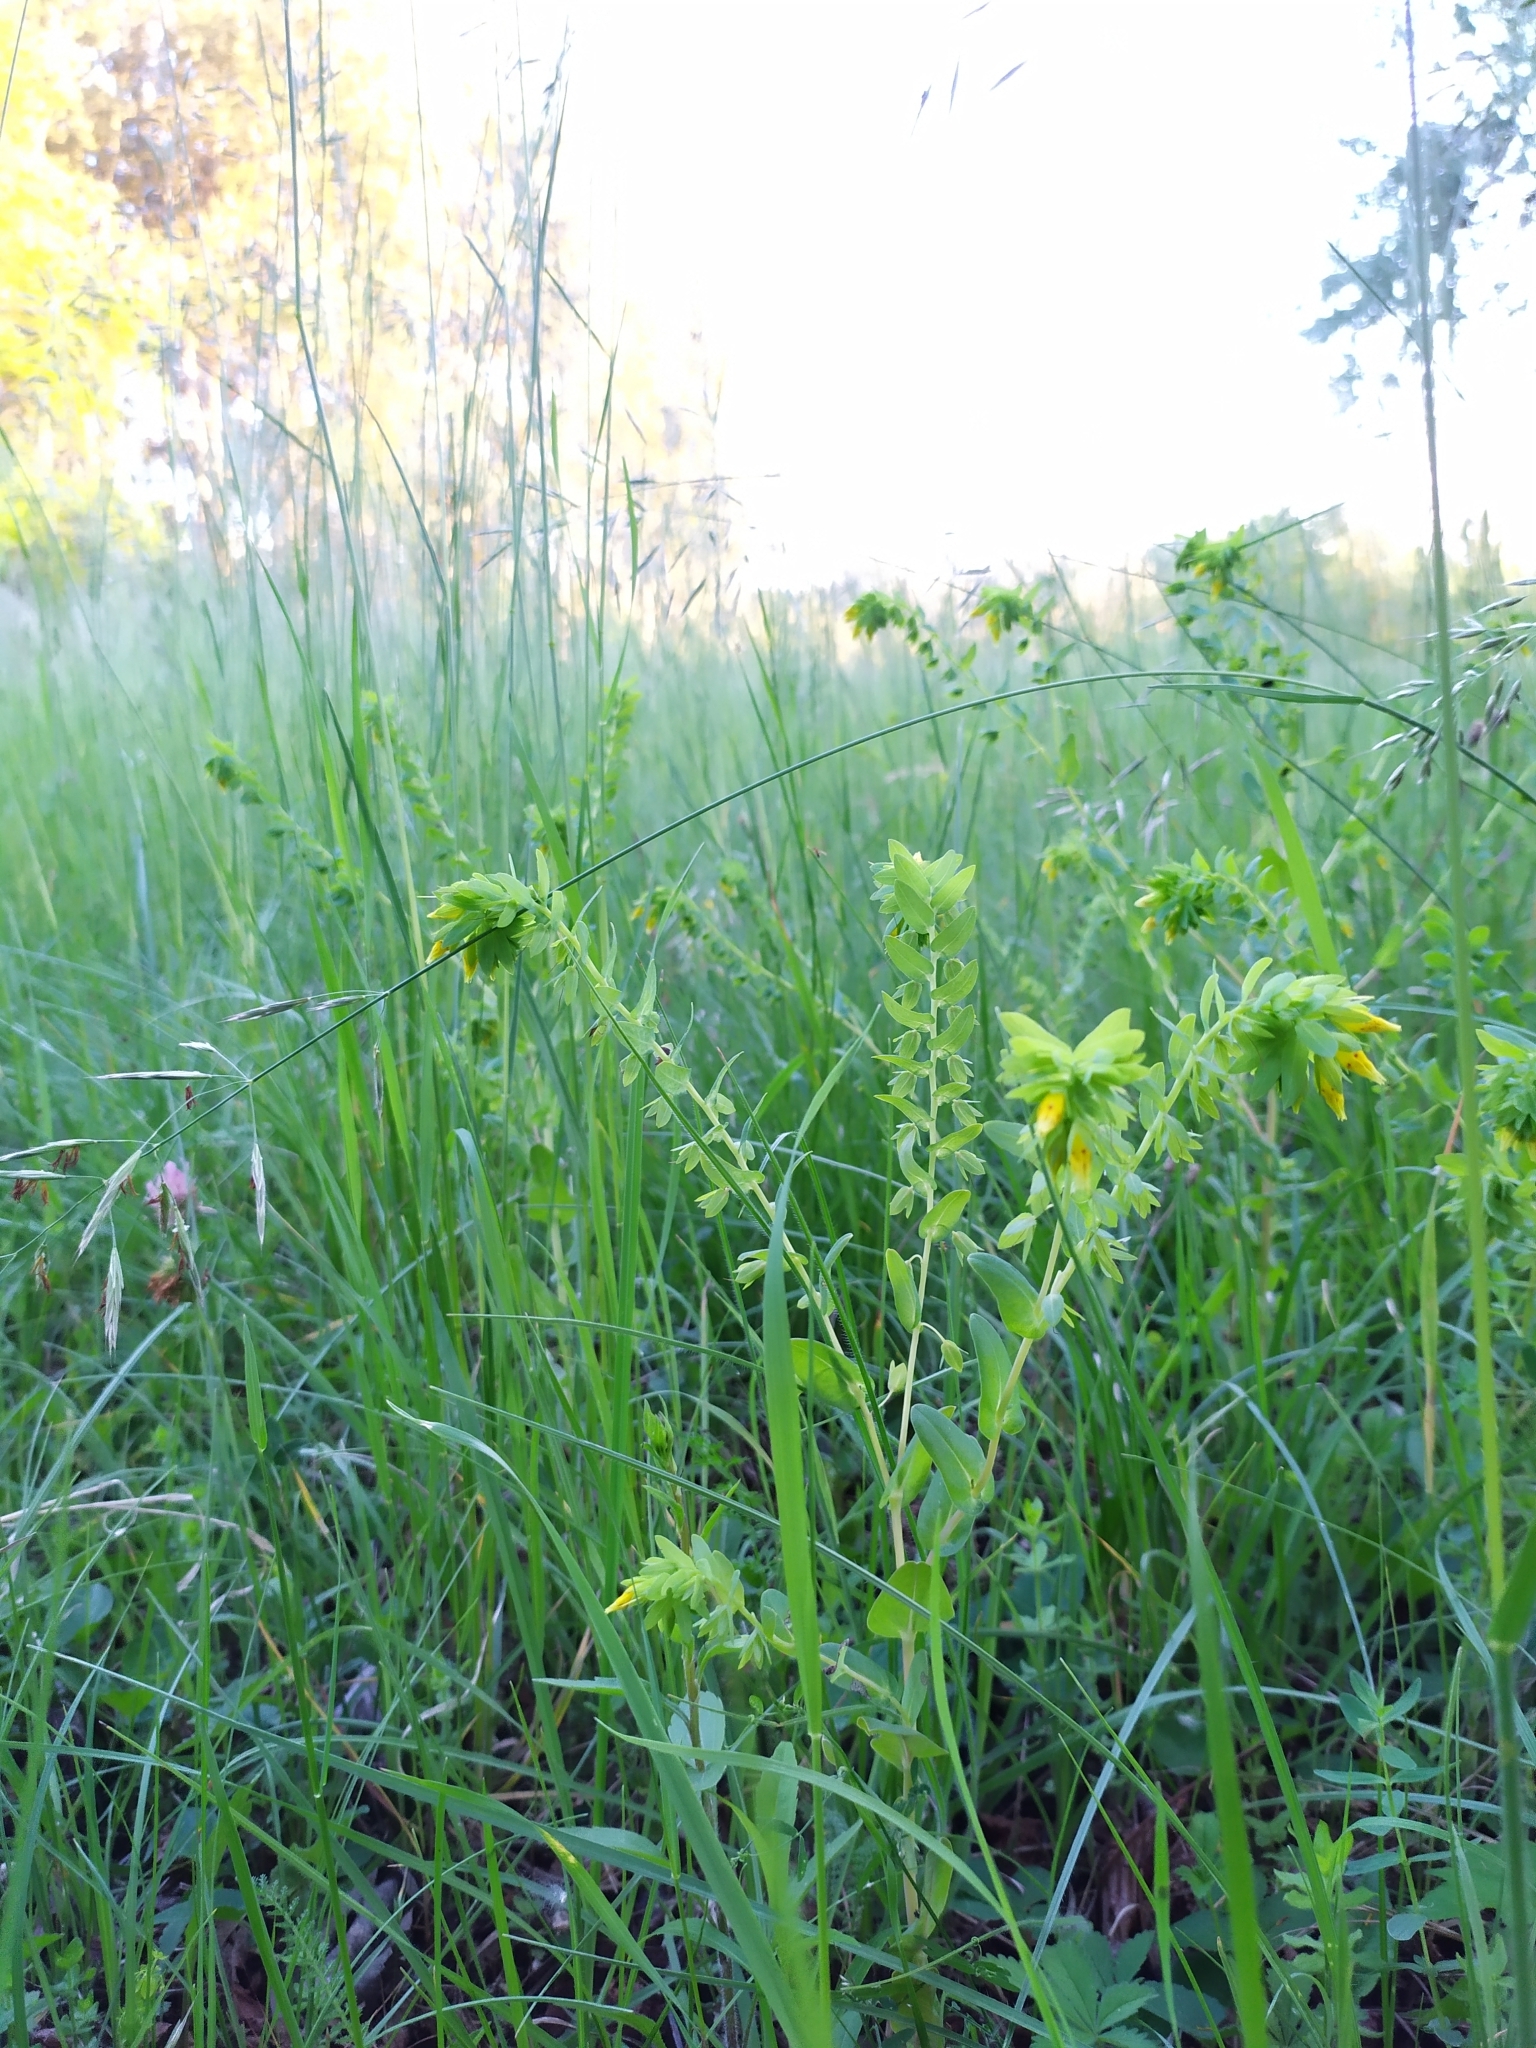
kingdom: Plantae
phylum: Tracheophyta
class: Magnoliopsida
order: Boraginales
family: Boraginaceae
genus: Cerinthe
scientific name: Cerinthe minor
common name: Lesser honeywort
